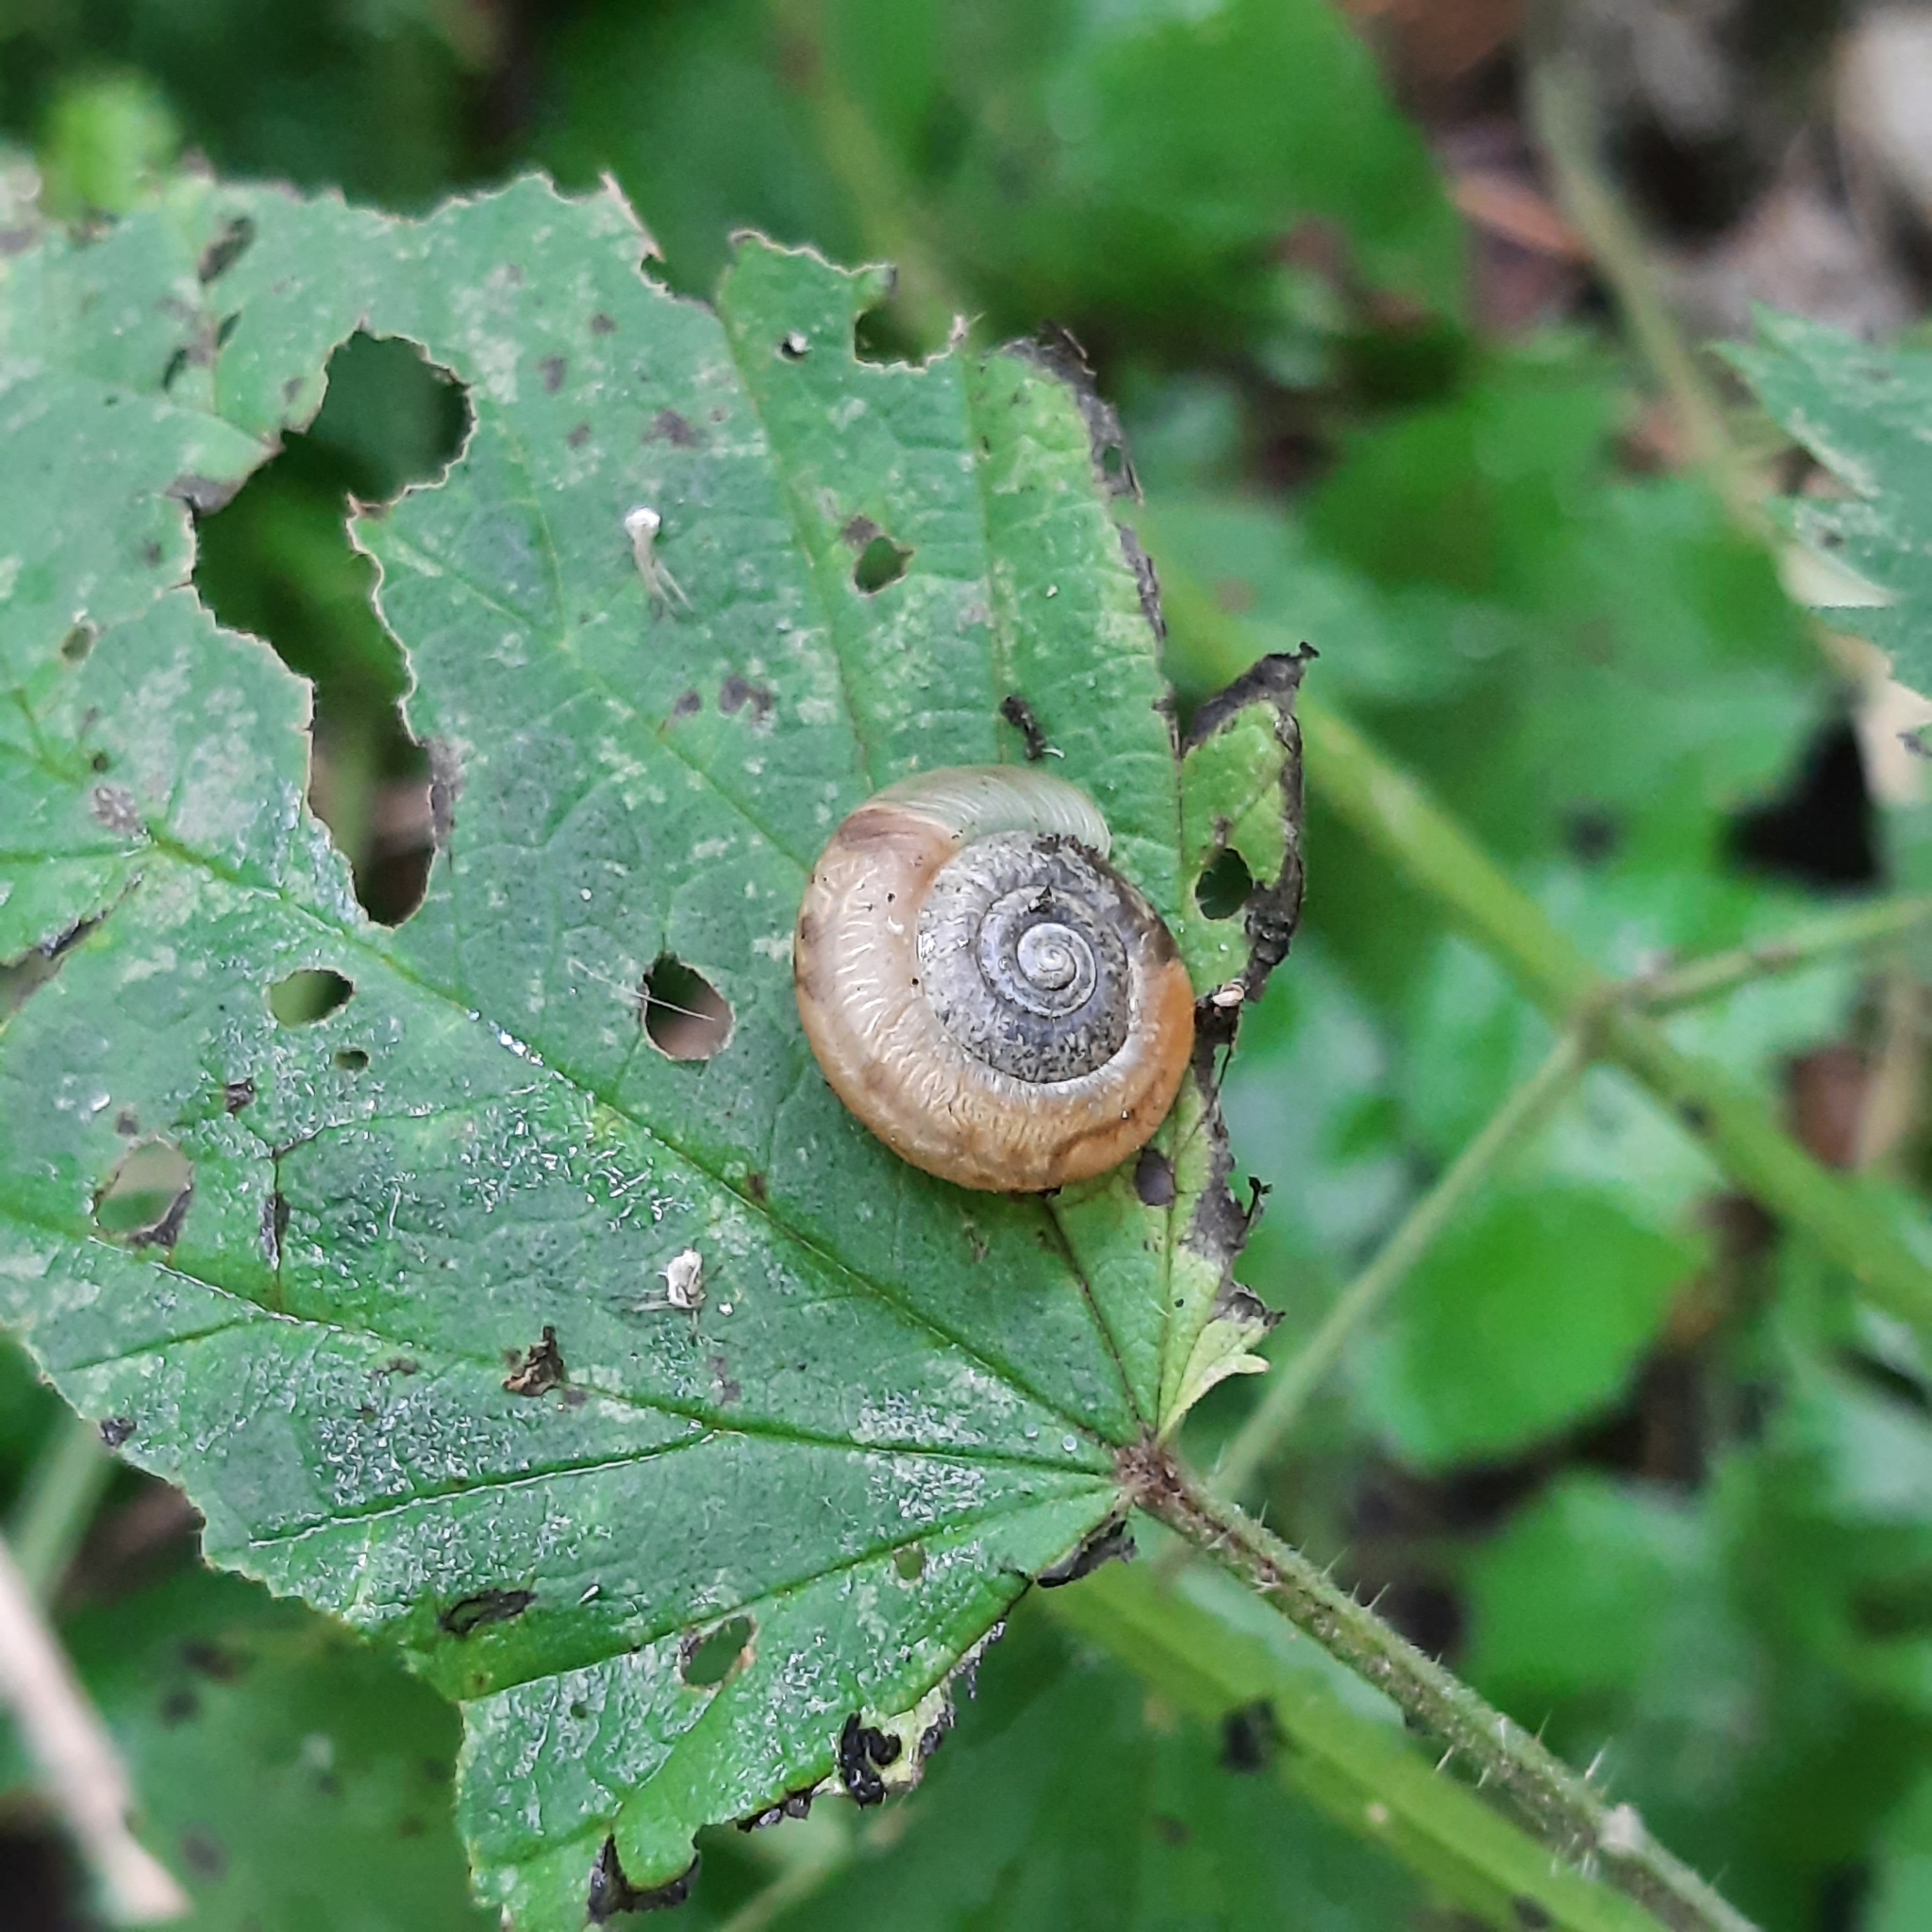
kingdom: Animalia
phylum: Mollusca
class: Gastropoda
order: Stylommatophora
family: Hygromiidae
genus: Urticicola
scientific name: Urticicola umbrosus
